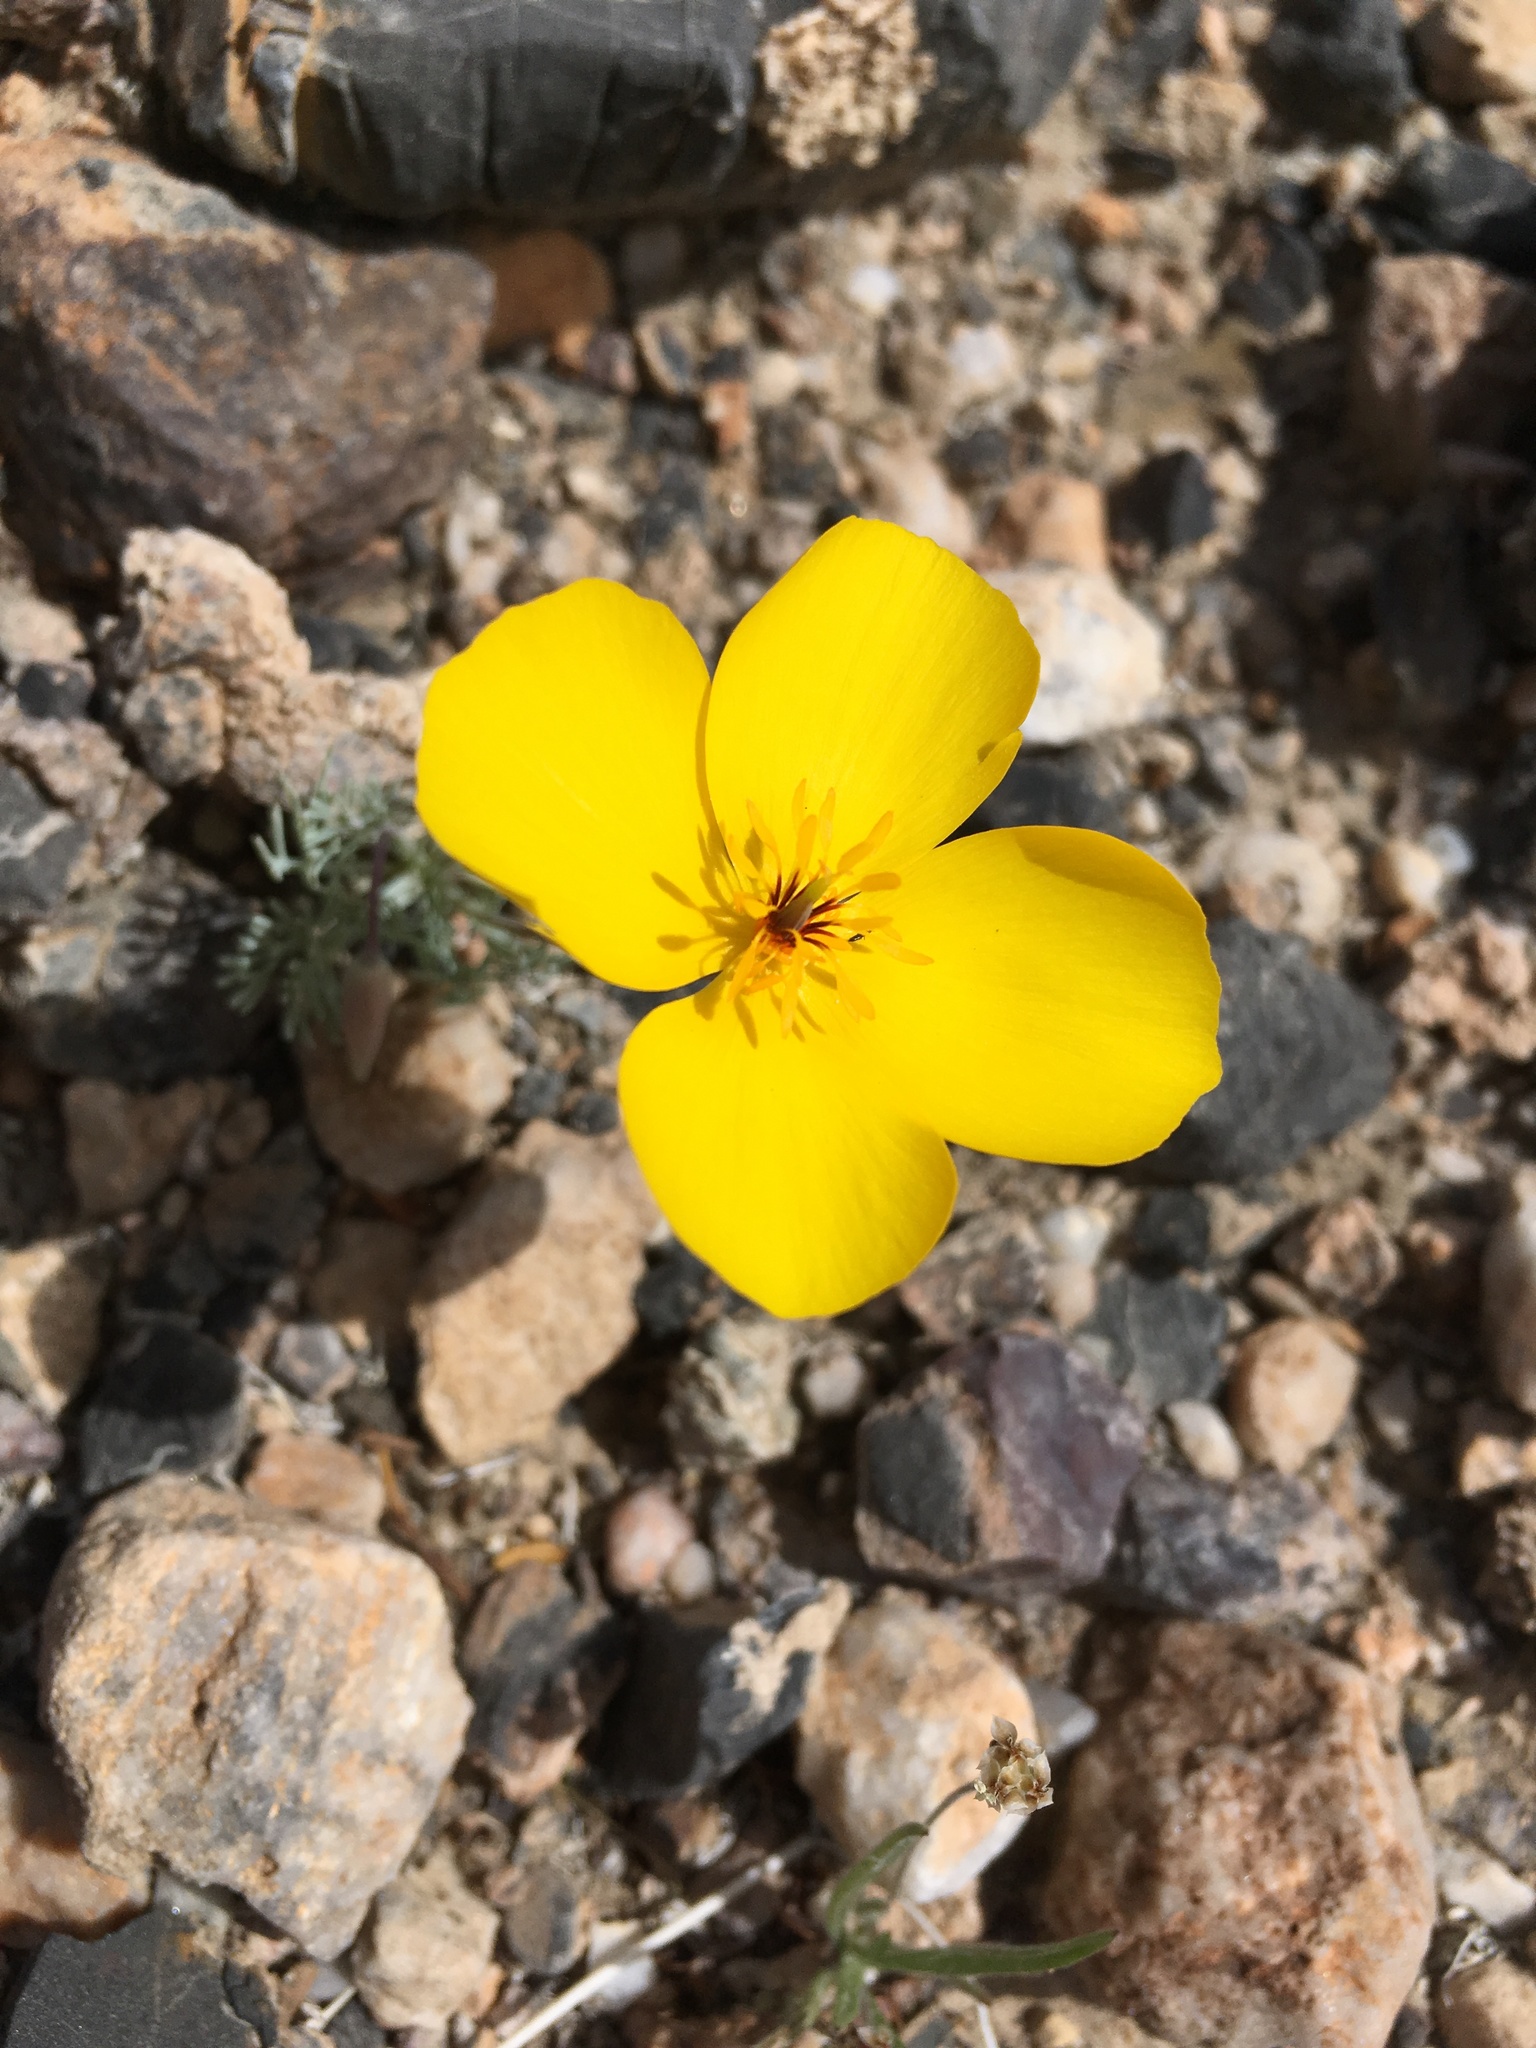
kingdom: Plantae
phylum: Tracheophyta
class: Magnoliopsida
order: Ranunculales
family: Papaveraceae
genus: Eschscholzia
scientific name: Eschscholzia glyptosperma
